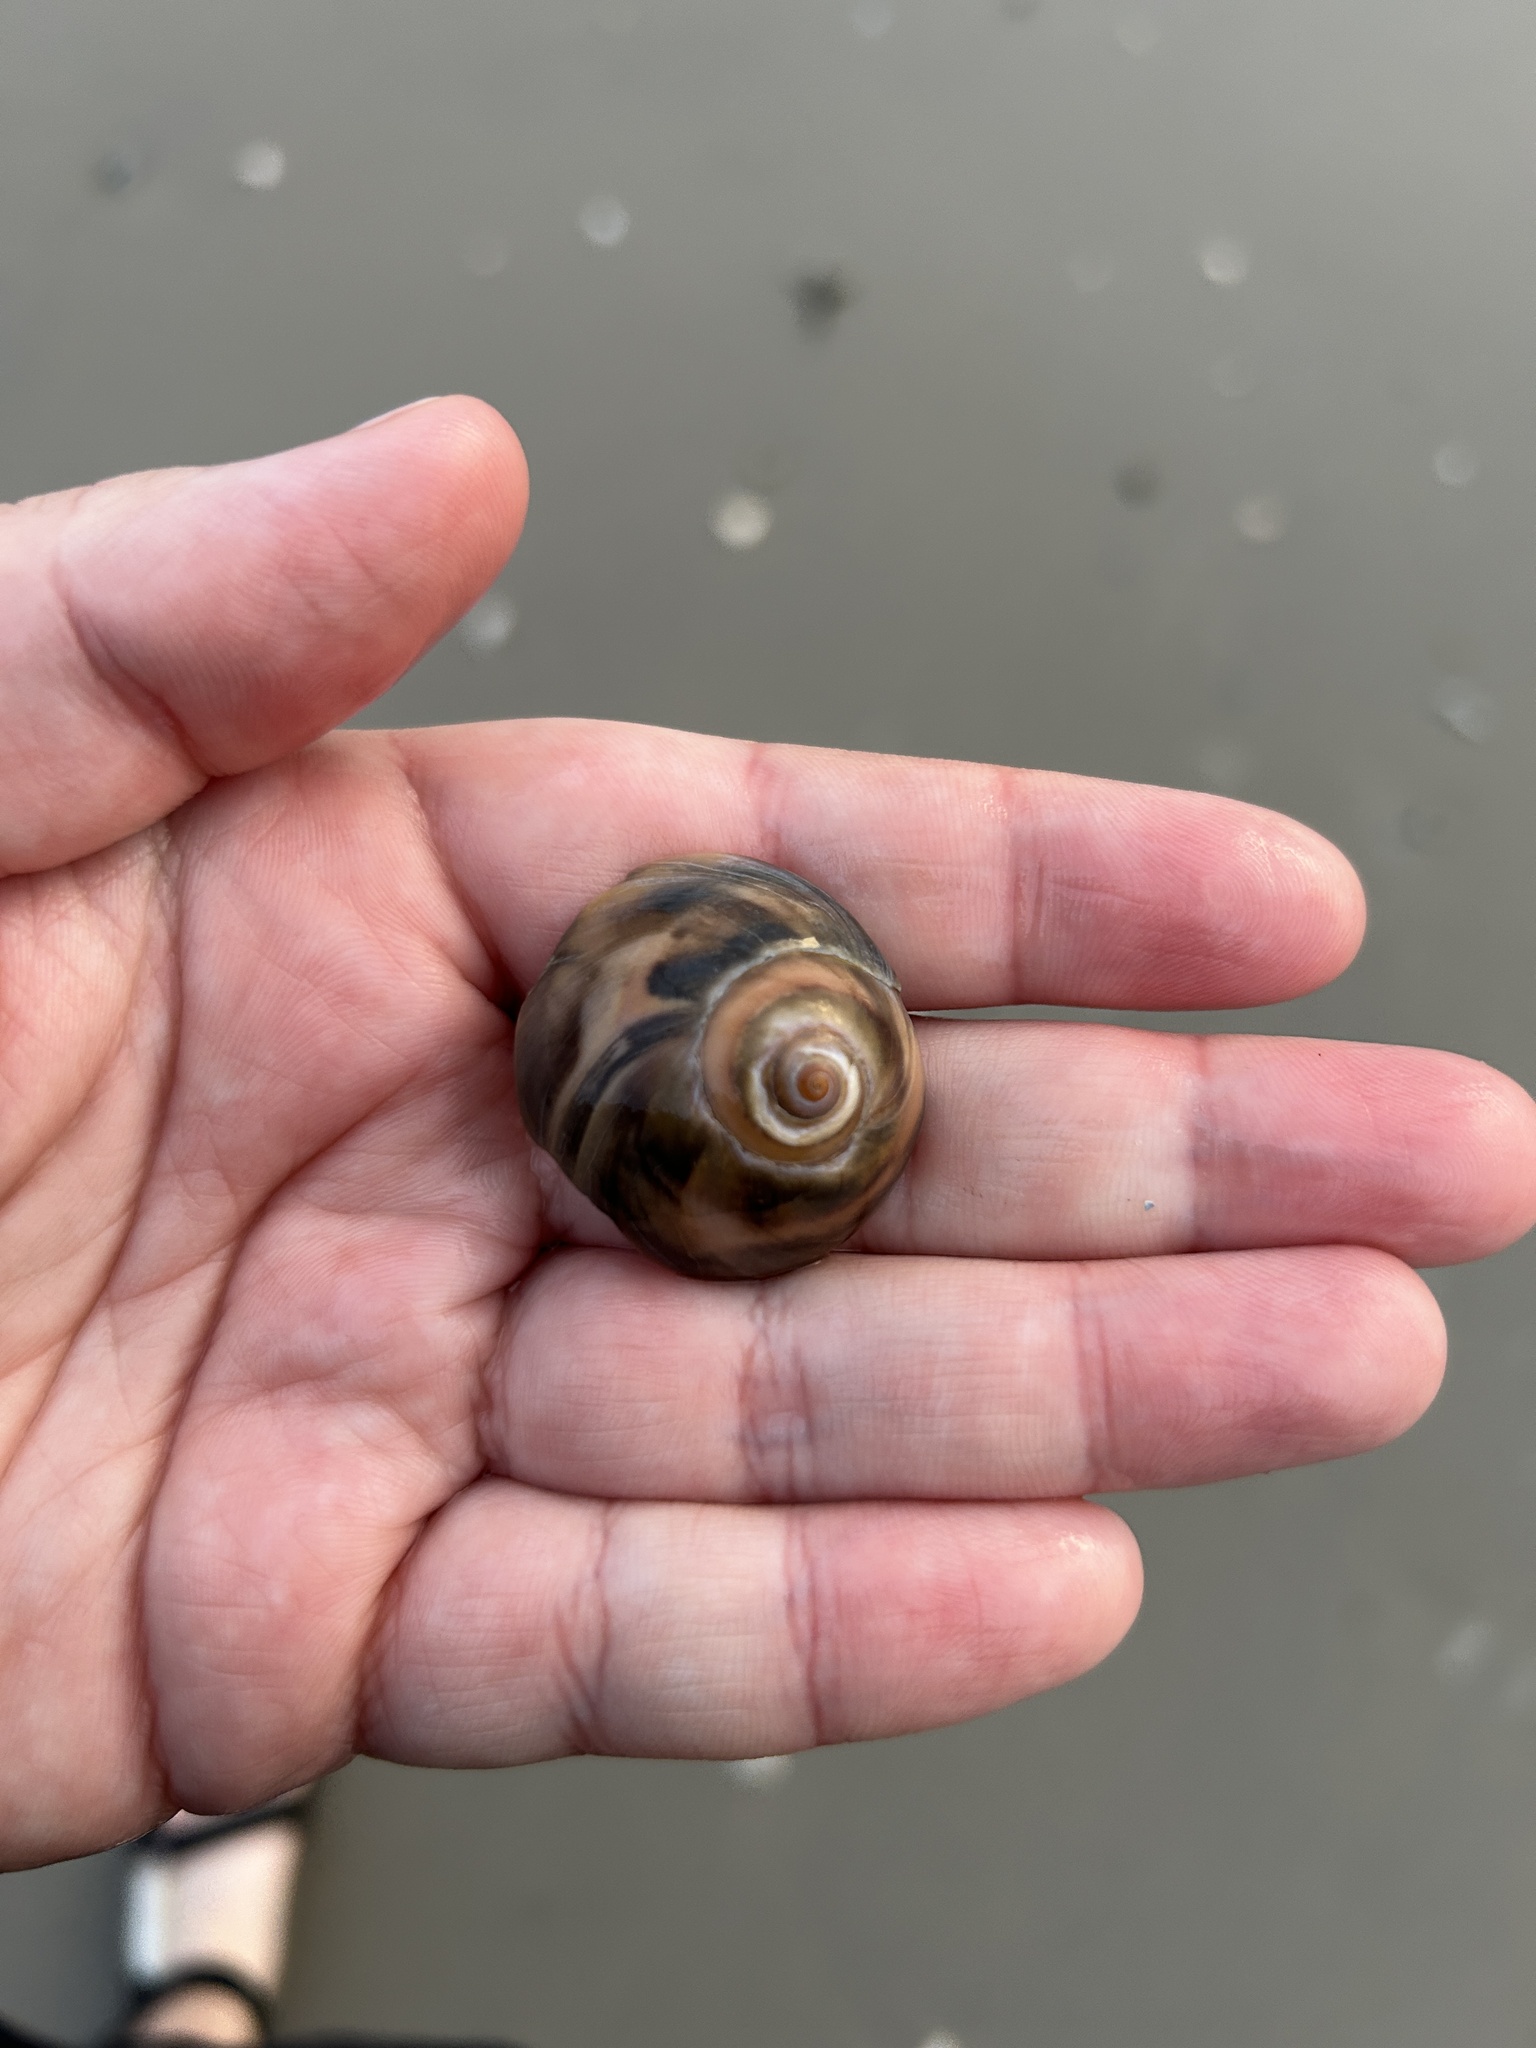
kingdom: Animalia
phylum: Mollusca
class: Gastropoda
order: Littorinimorpha
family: Naticidae
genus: Neverita
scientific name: Neverita duplicata
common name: Lobed moonsnail
